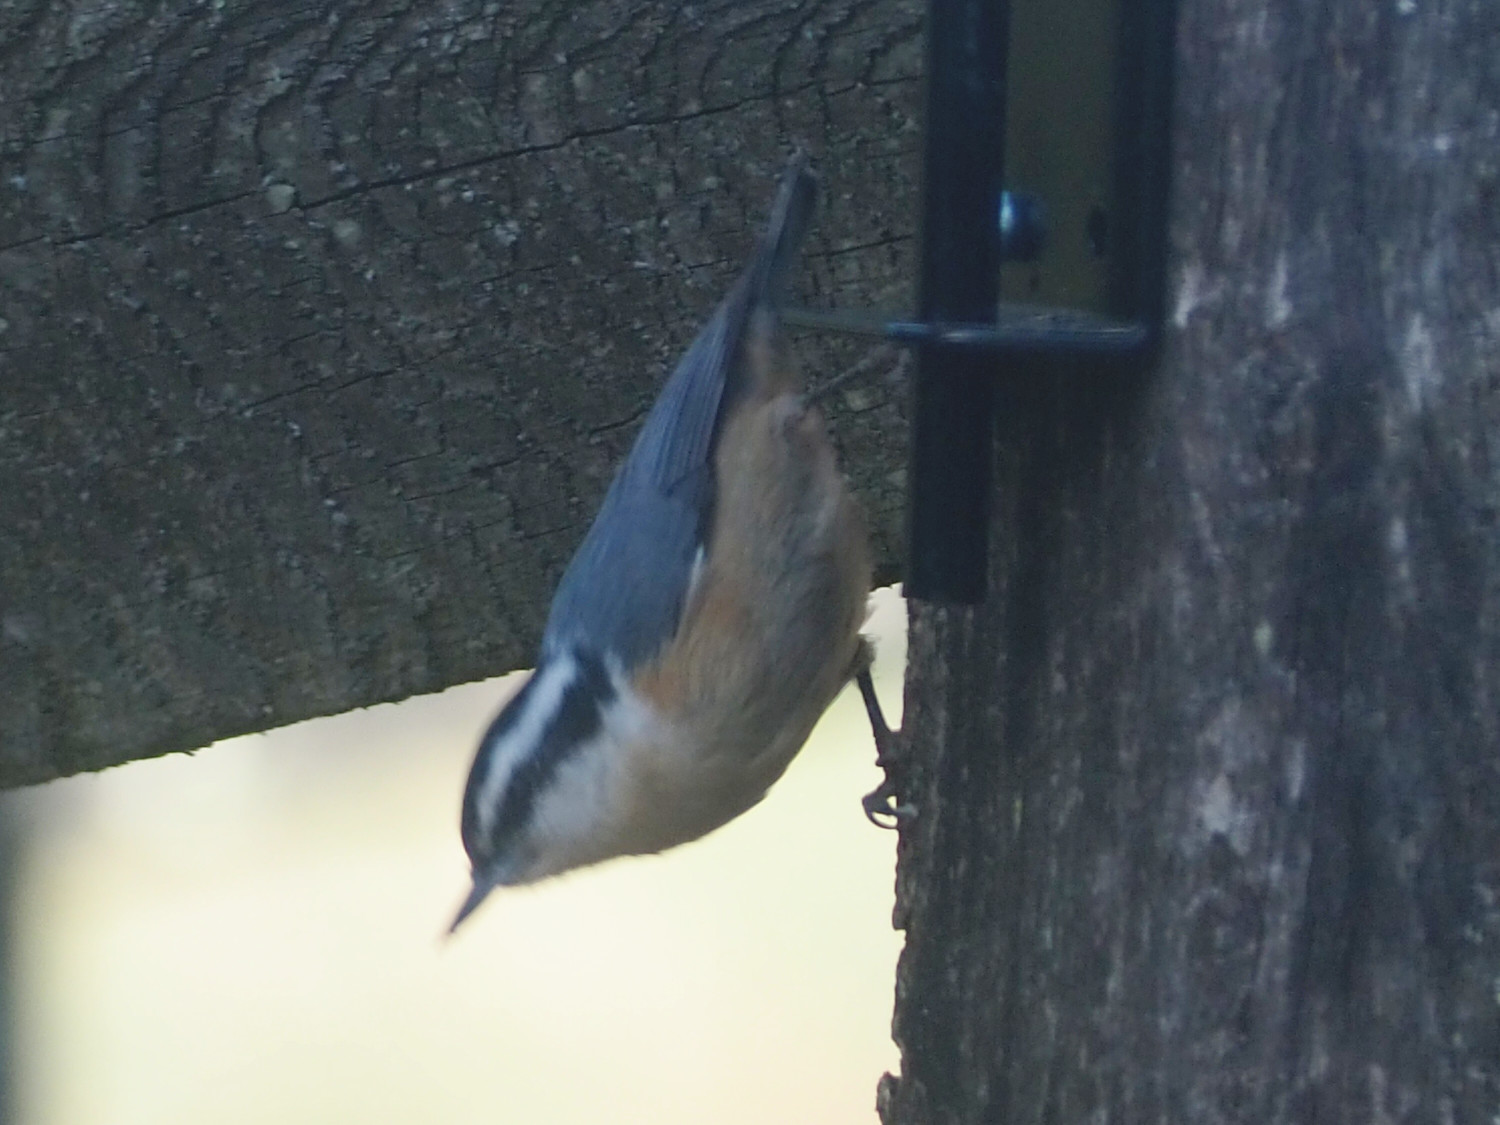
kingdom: Animalia
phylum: Chordata
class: Aves
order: Passeriformes
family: Sittidae
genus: Sitta
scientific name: Sitta canadensis
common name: Red-breasted nuthatch
